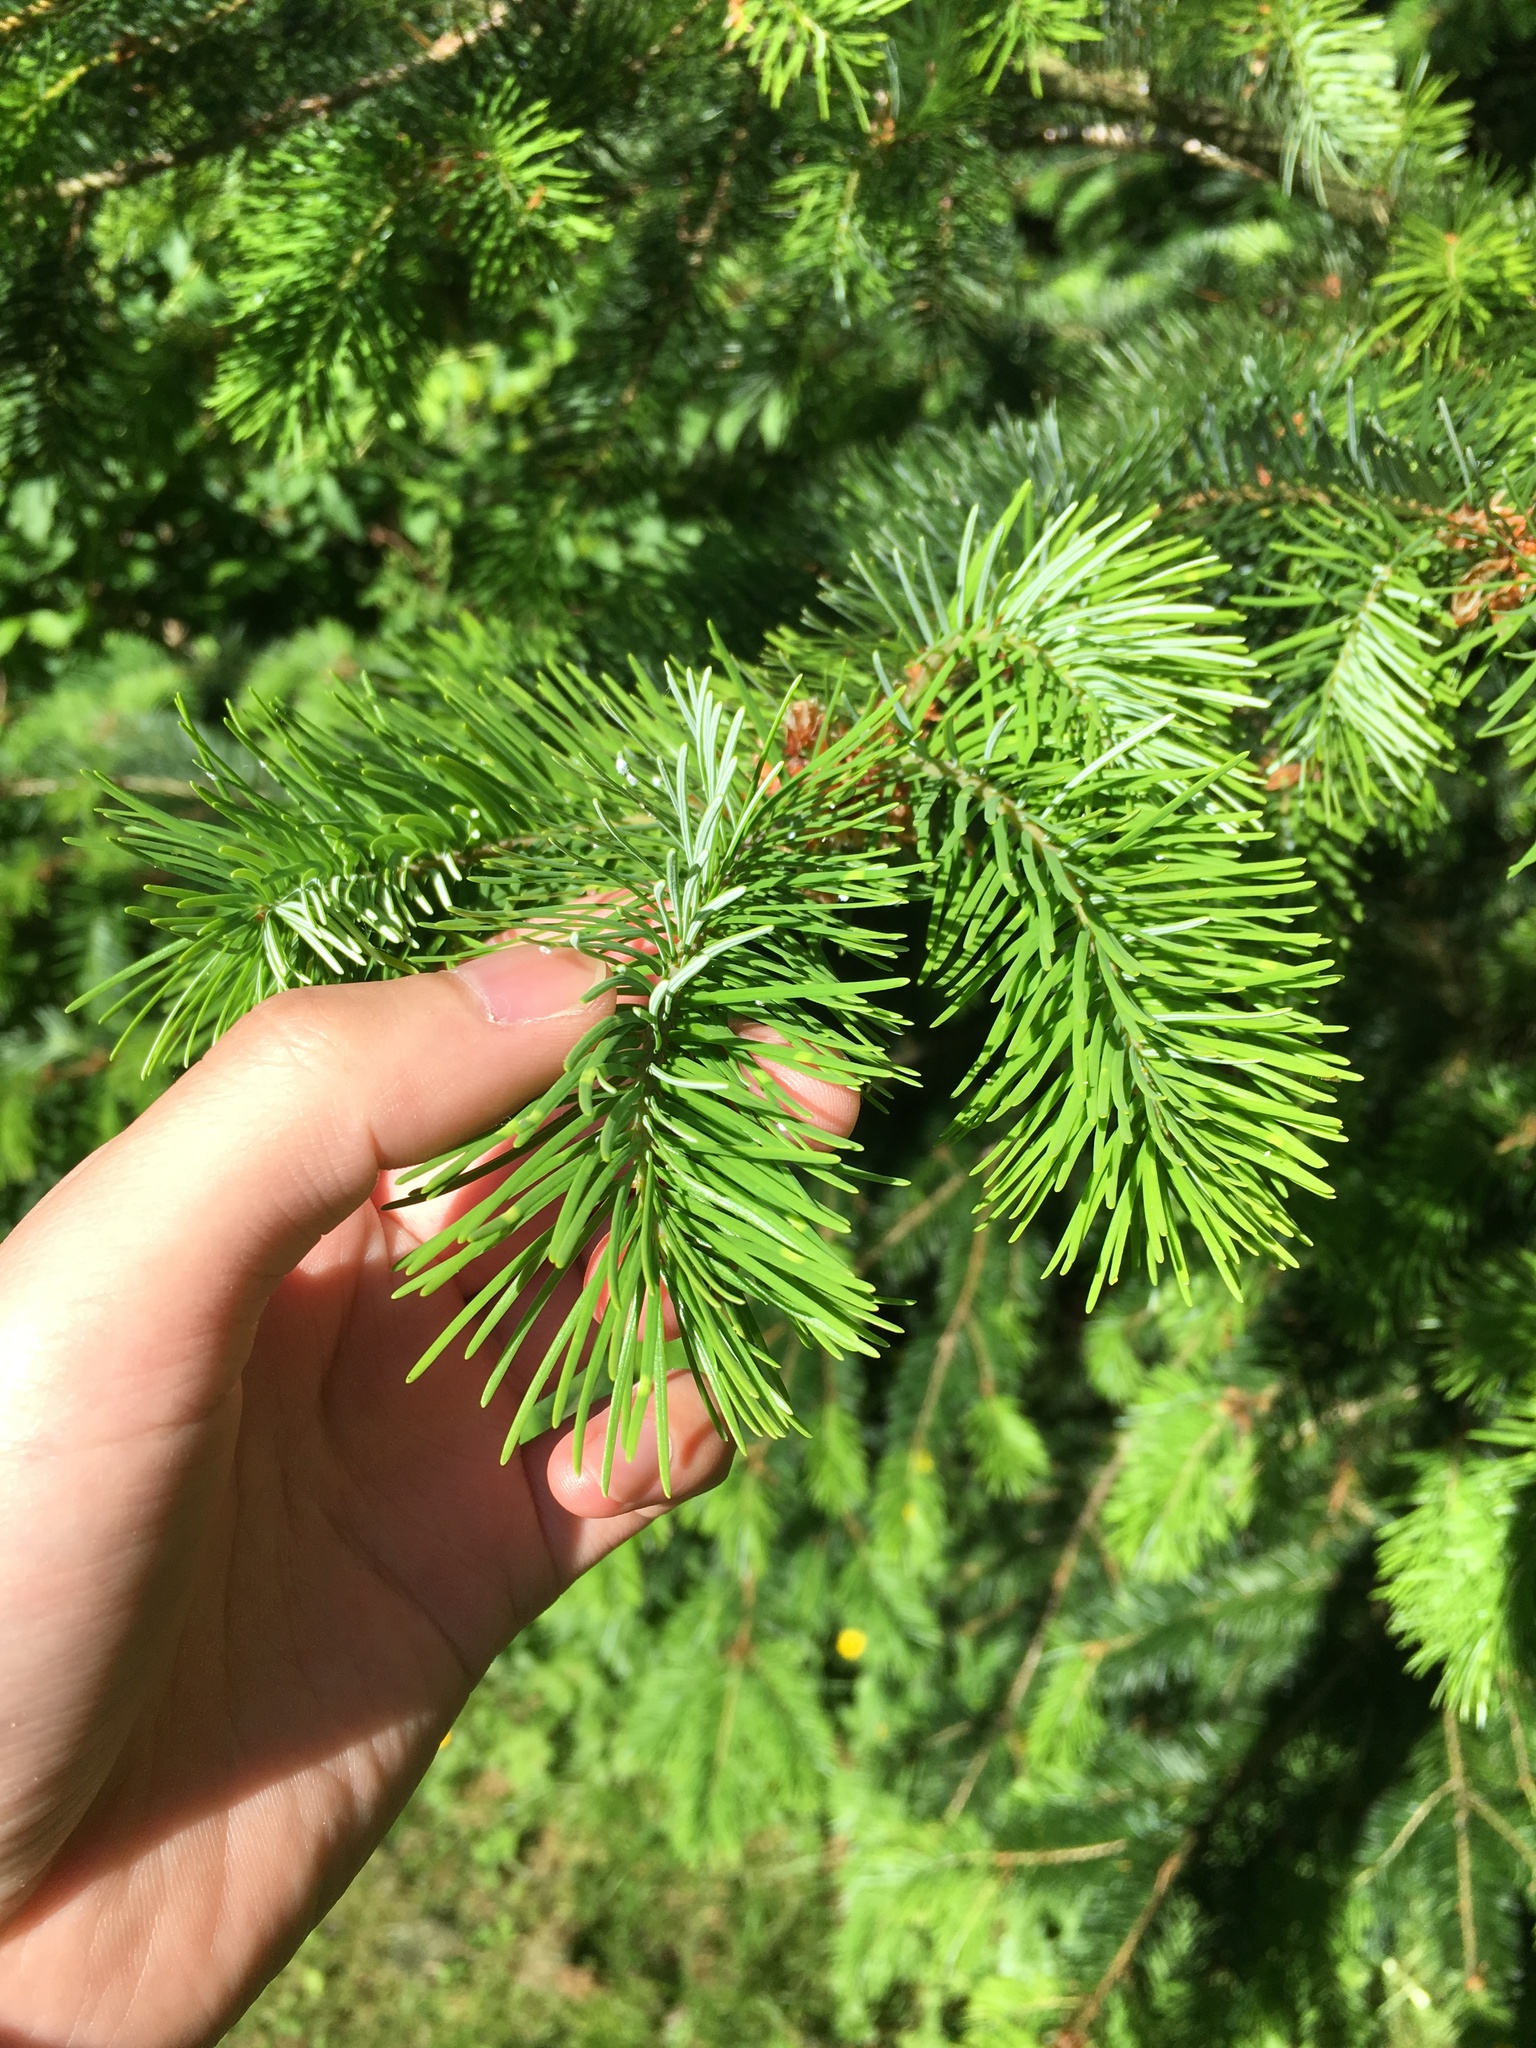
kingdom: Plantae
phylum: Tracheophyta
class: Pinopsida
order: Pinales
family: Pinaceae
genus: Pseudotsuga
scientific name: Pseudotsuga menziesii
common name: Douglas fir
